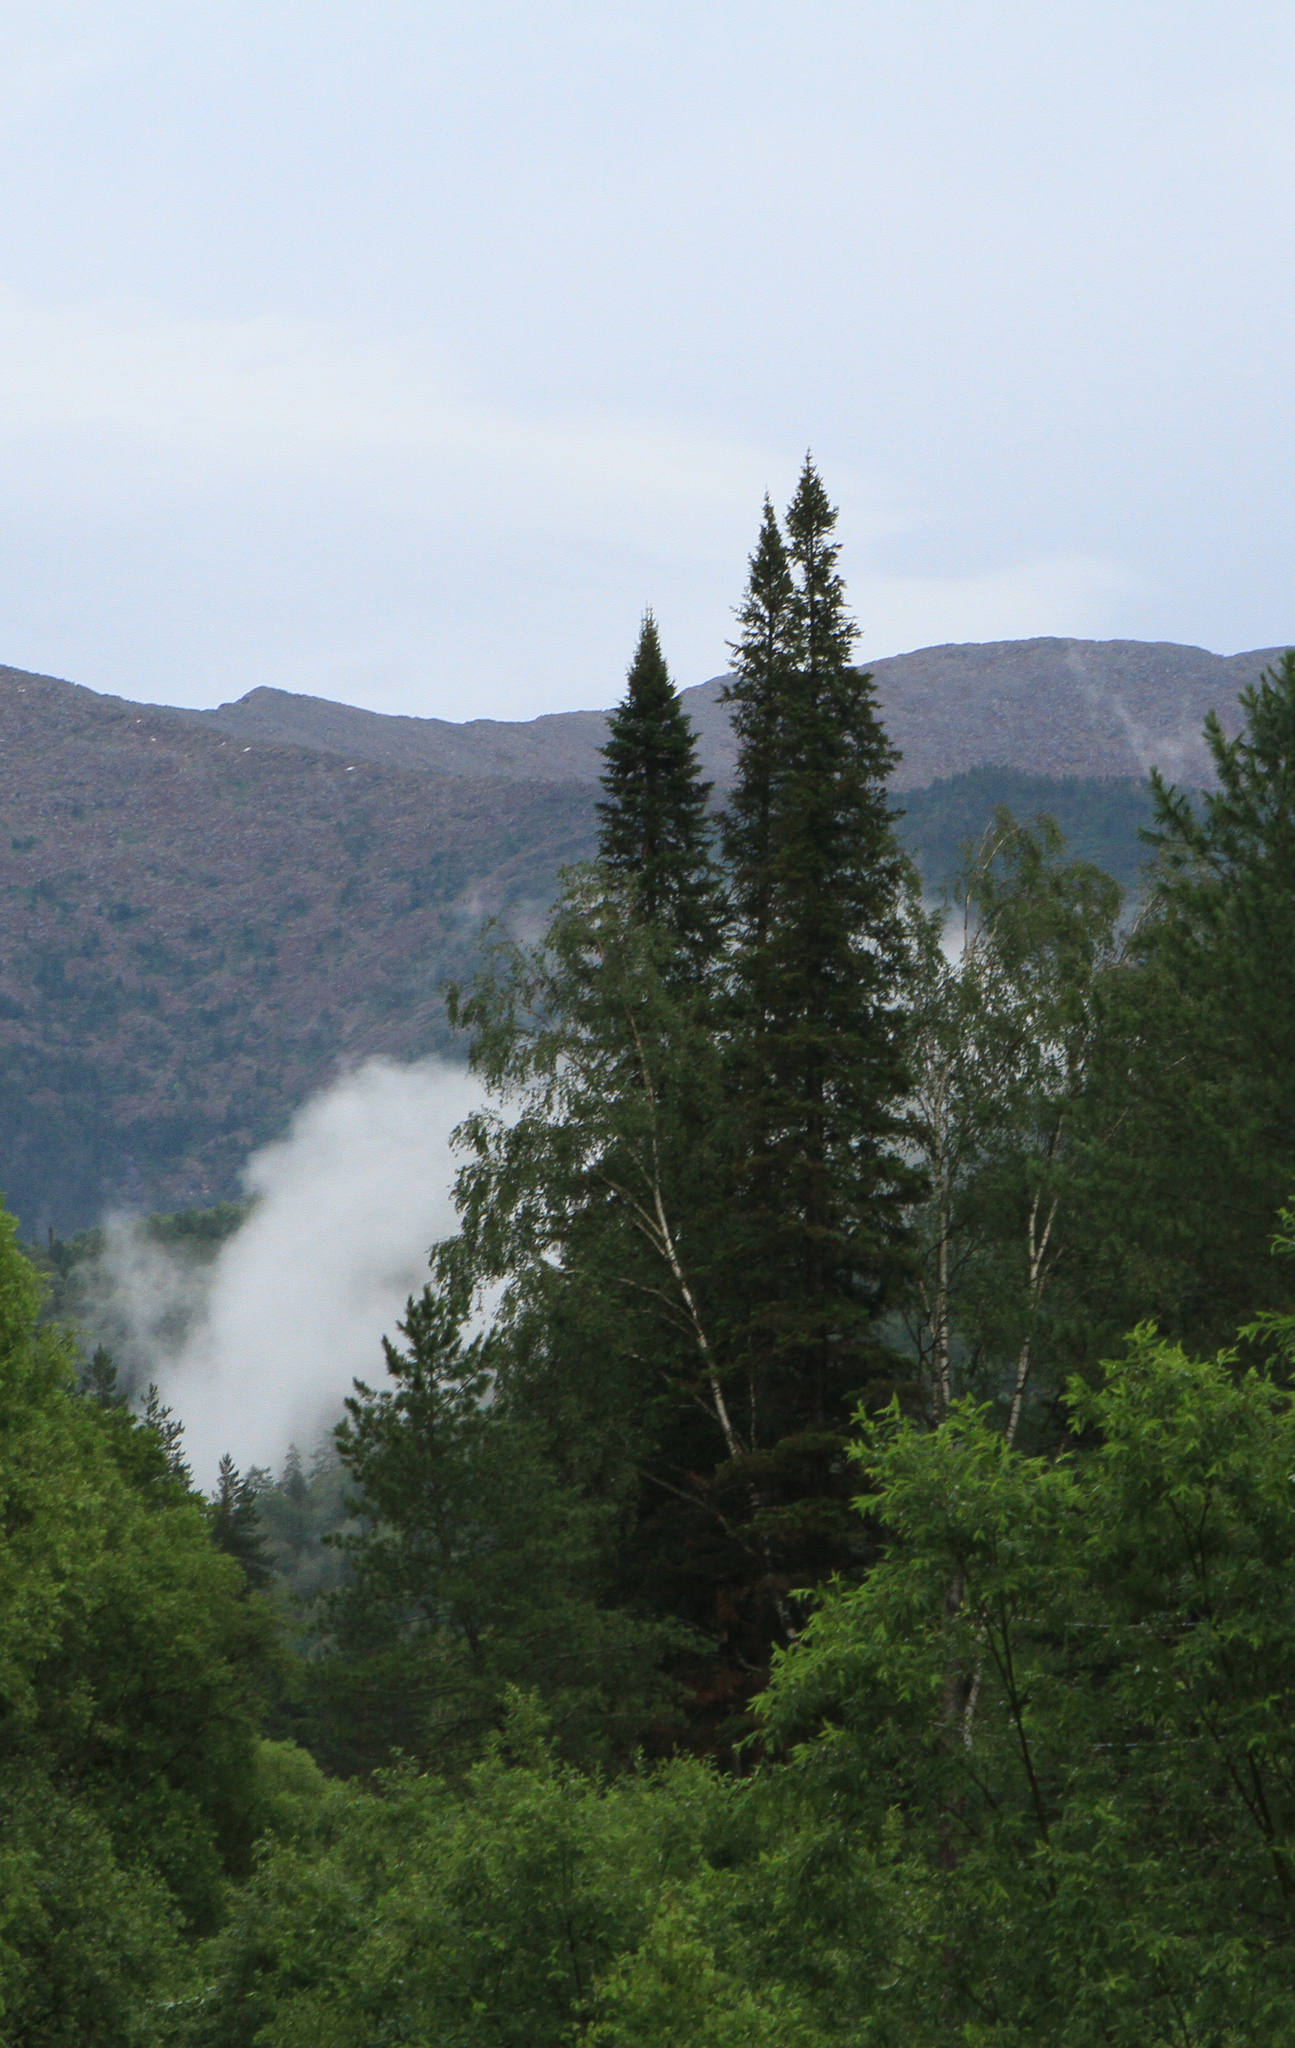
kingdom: Plantae
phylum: Tracheophyta
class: Pinopsida
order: Pinales
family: Pinaceae
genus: Abies
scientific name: Abies sibirica
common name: Siberian fir
